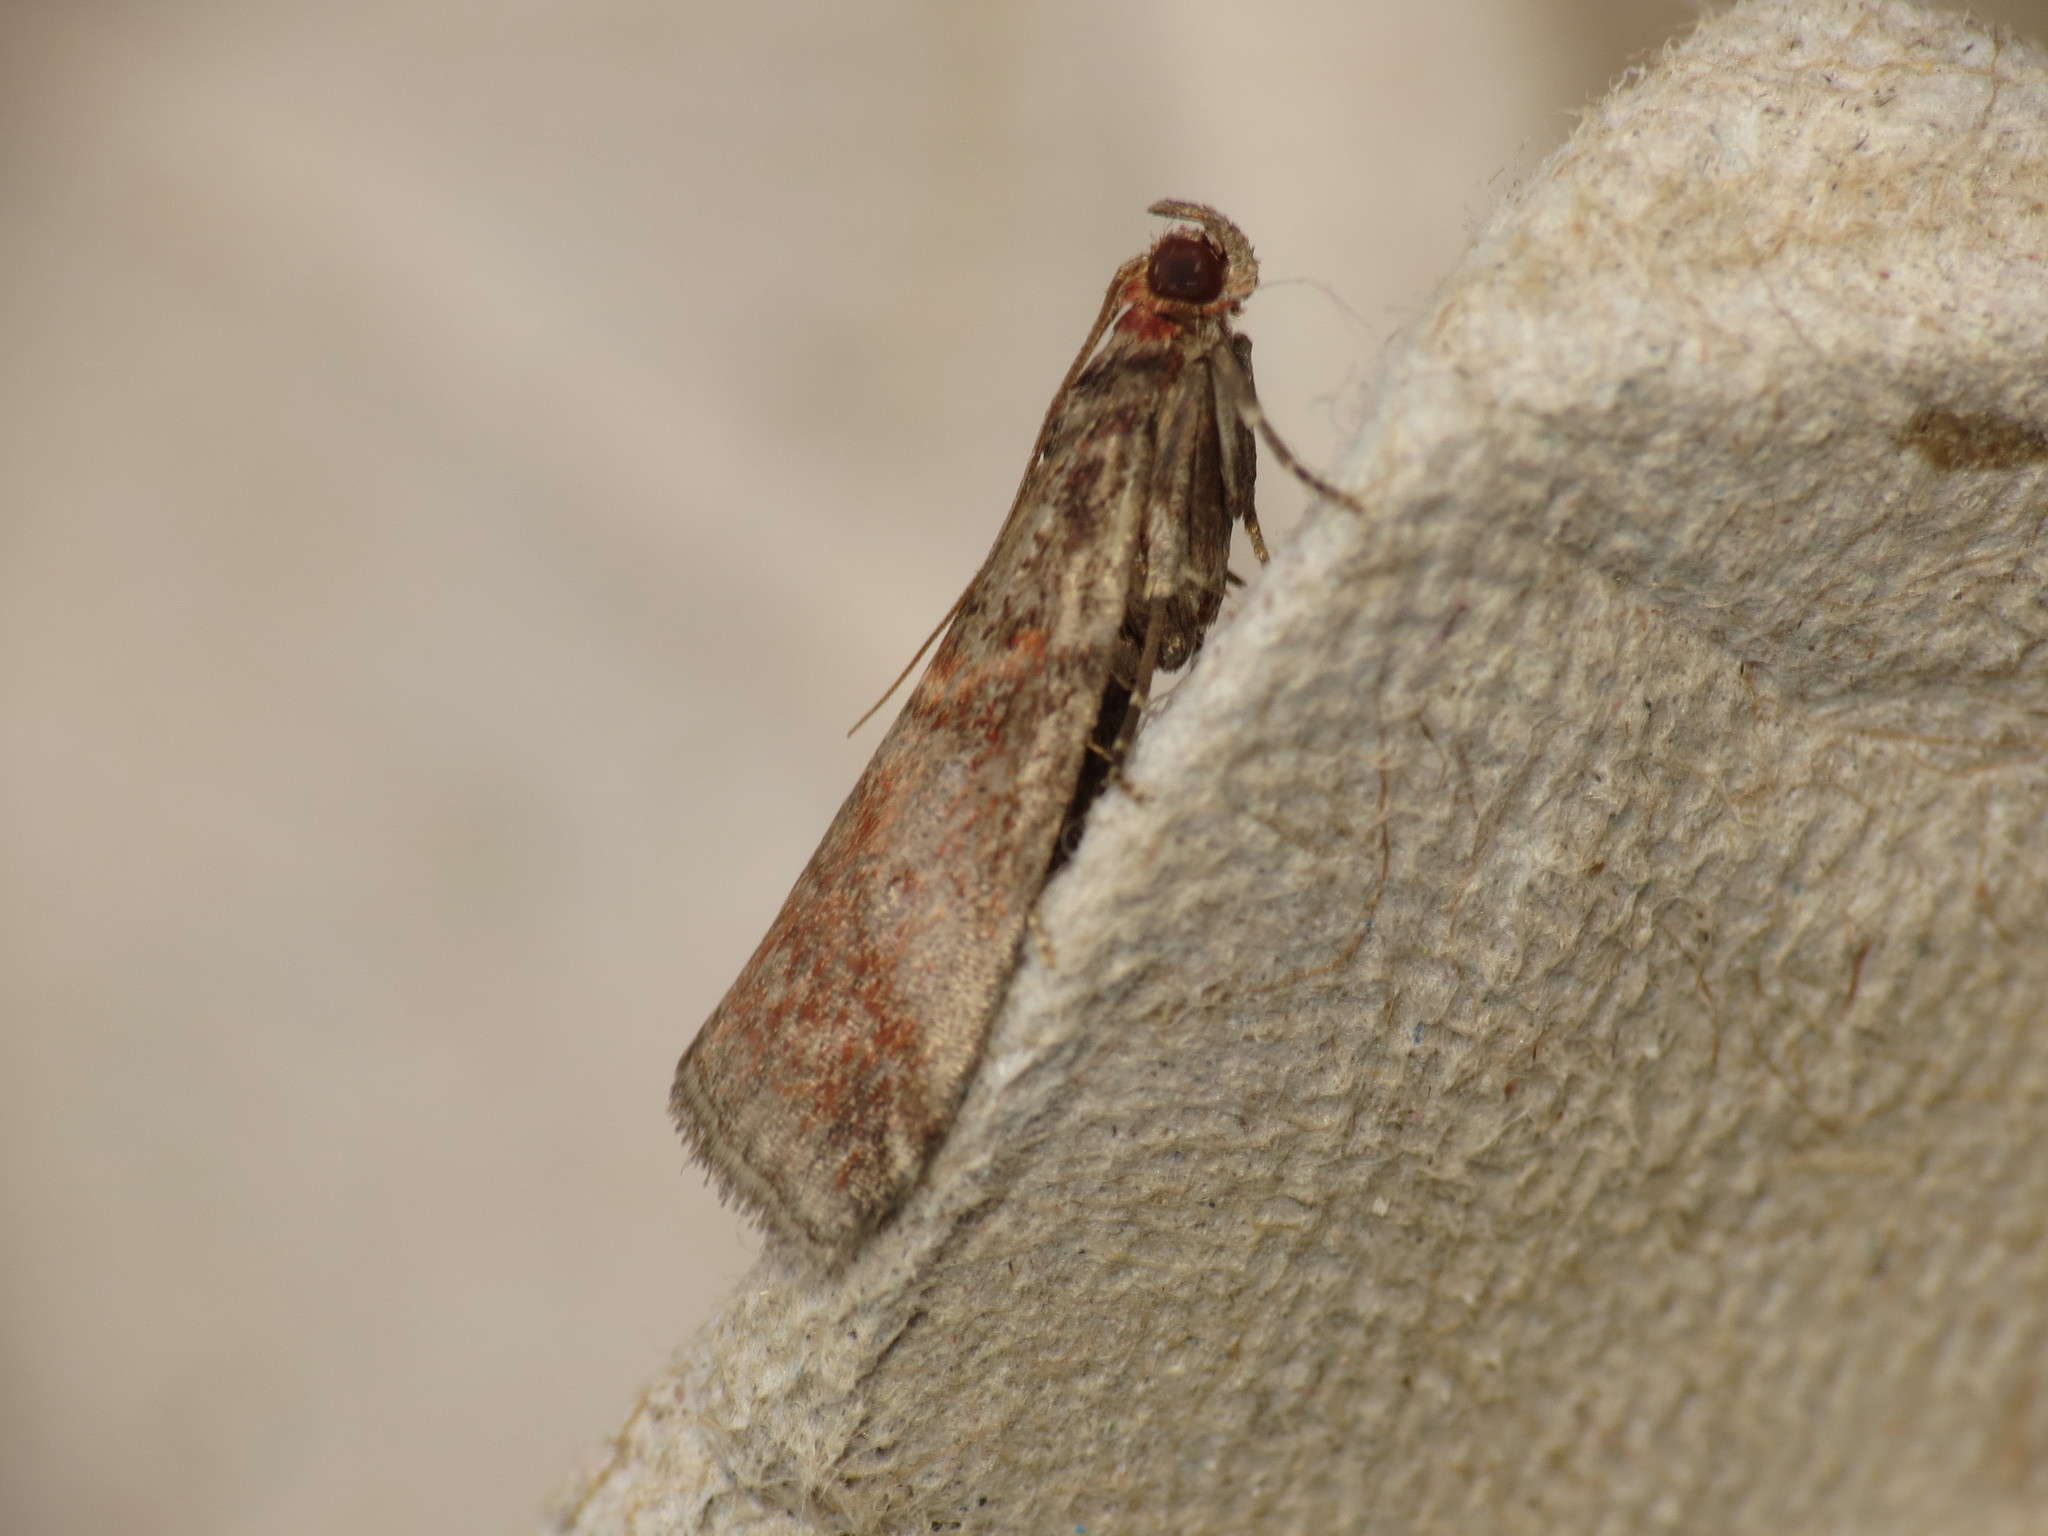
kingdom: Animalia
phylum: Arthropoda
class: Insecta
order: Lepidoptera
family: Pyralidae
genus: Acrobasis
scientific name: Acrobasis advenella
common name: Grey knot-horn
